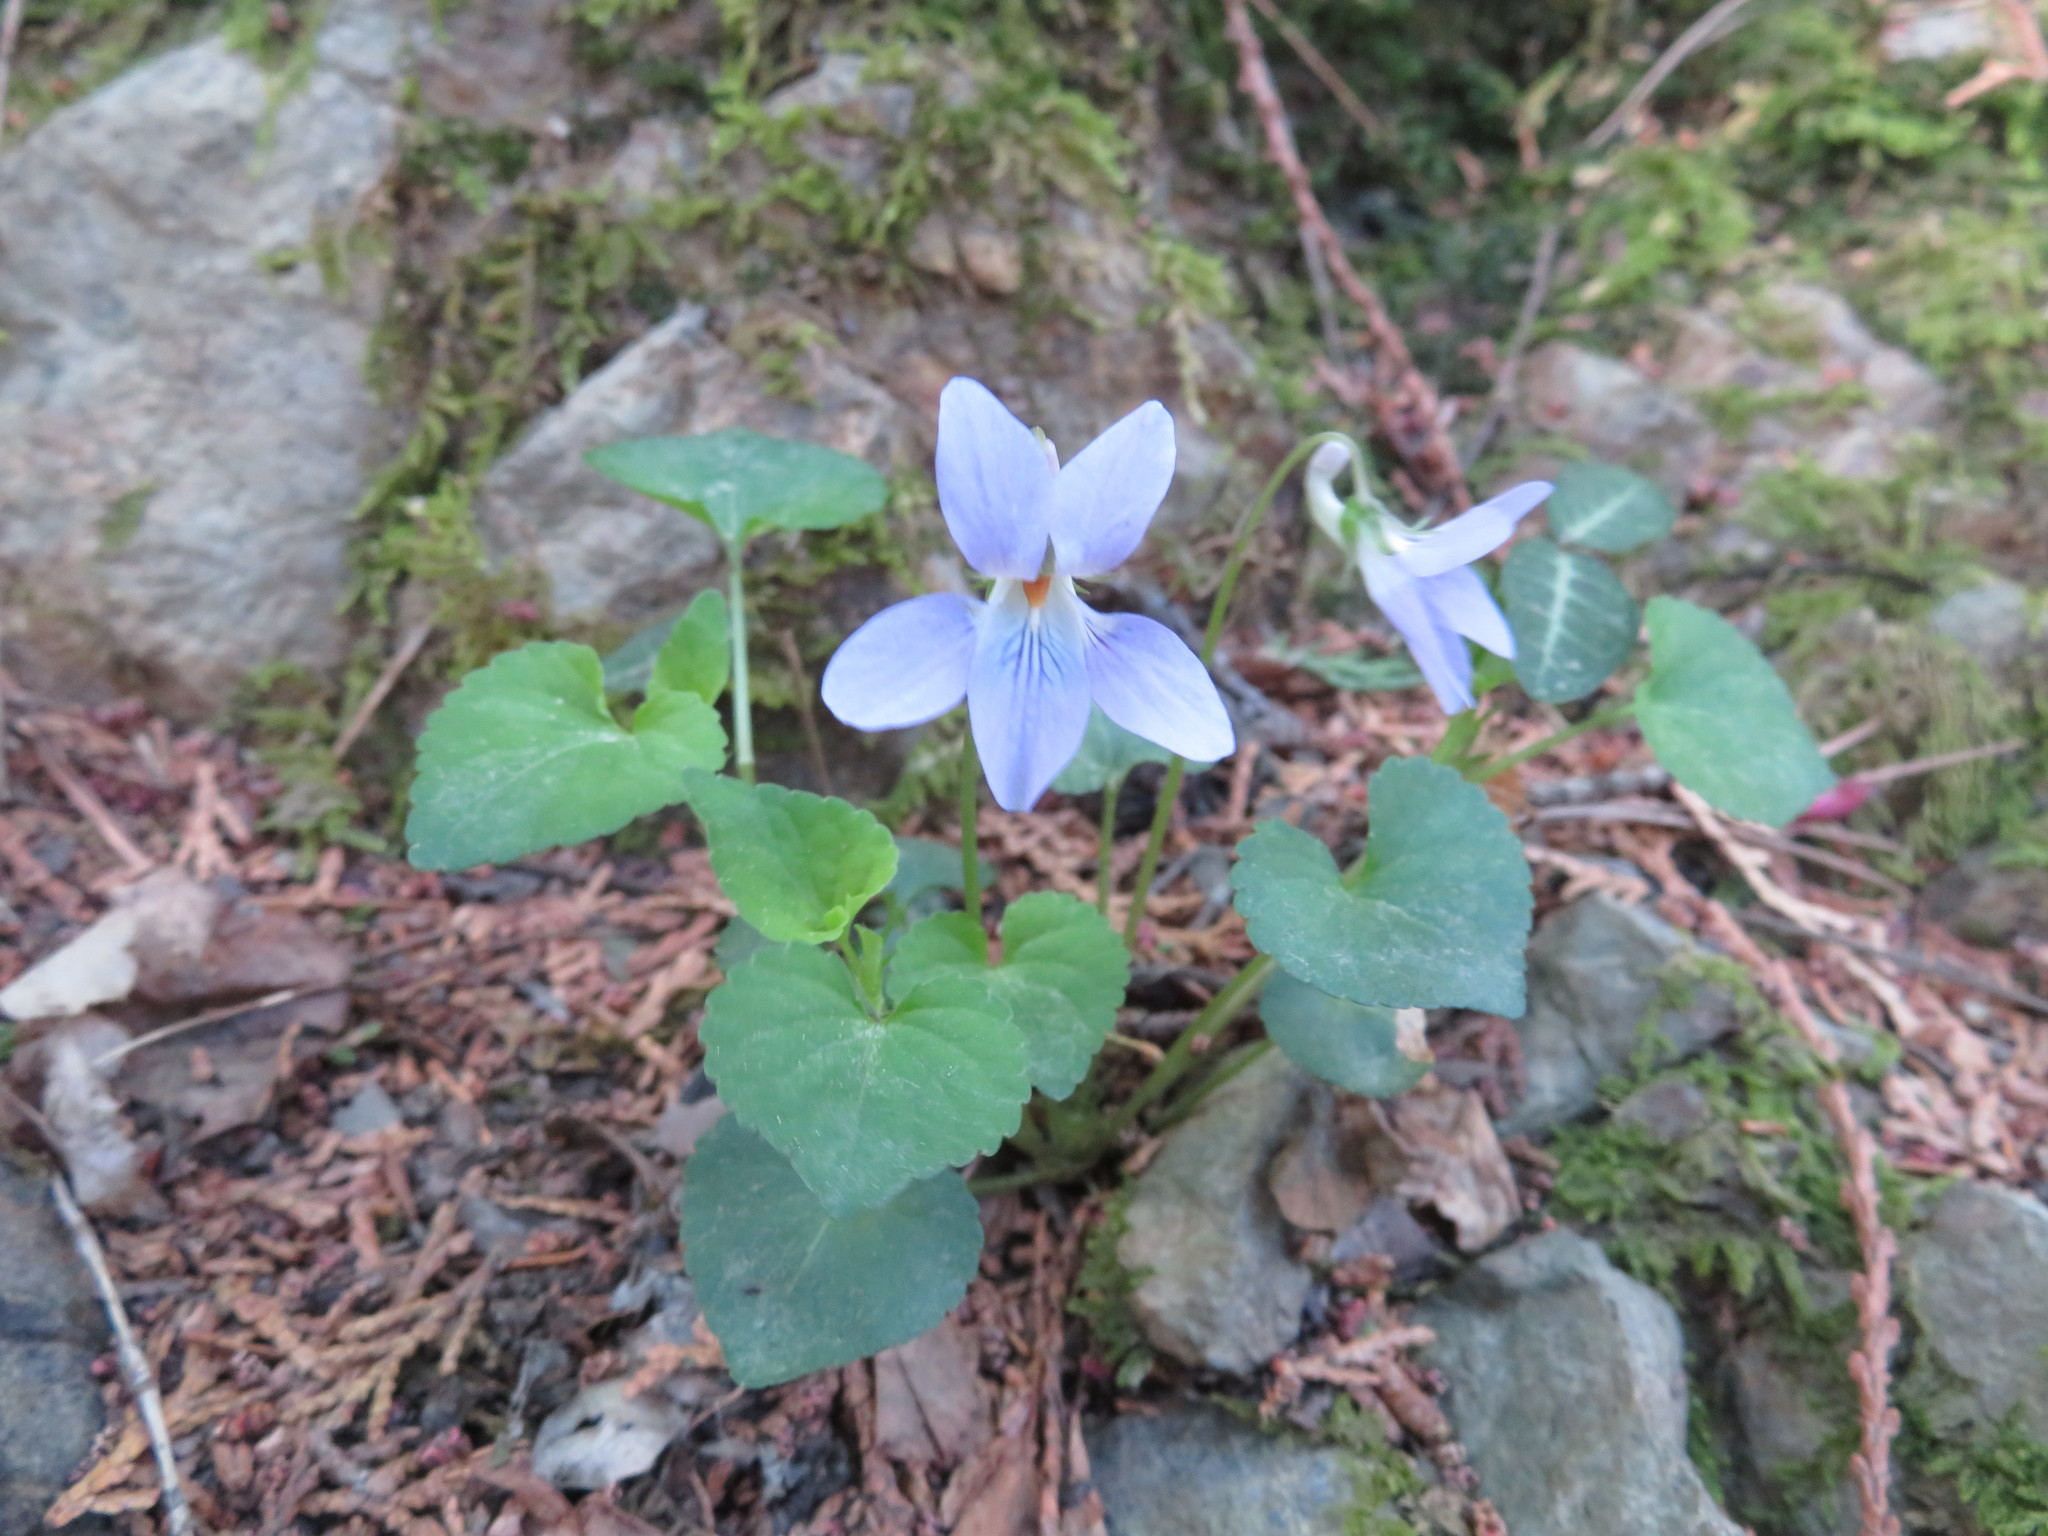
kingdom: Plantae
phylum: Tracheophyta
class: Magnoliopsida
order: Malpighiales
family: Violaceae
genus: Viola
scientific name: Viola grypoceras
